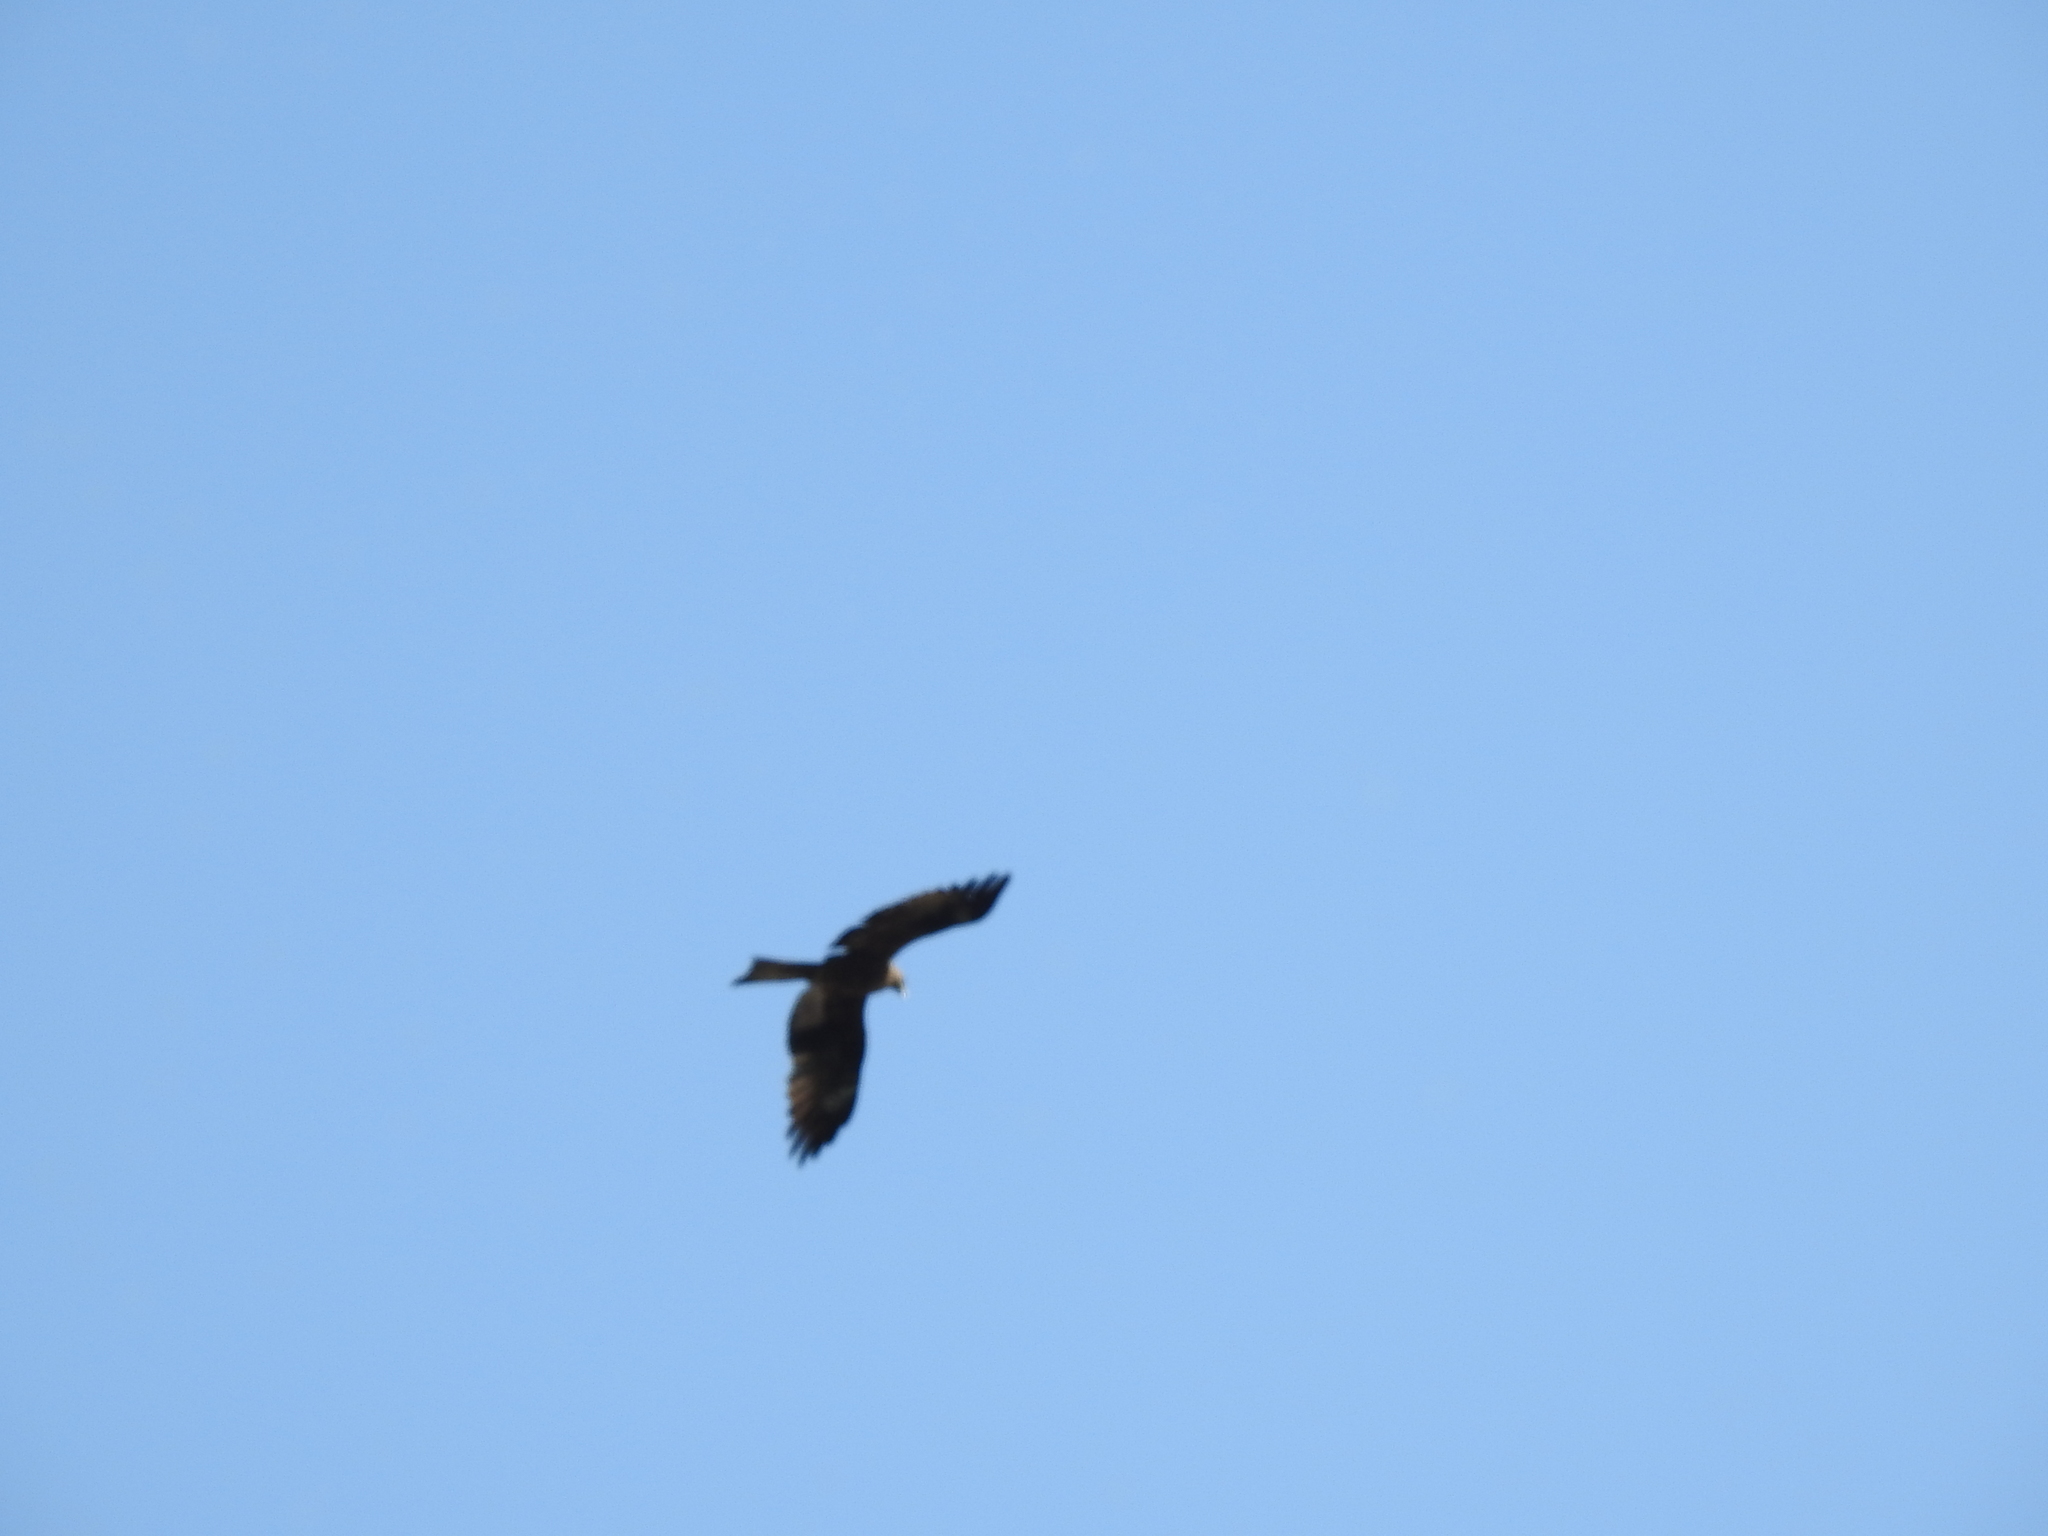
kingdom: Animalia
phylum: Chordata
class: Aves
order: Accipitriformes
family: Accipitridae
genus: Milvus
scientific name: Milvus migrans
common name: Black kite
